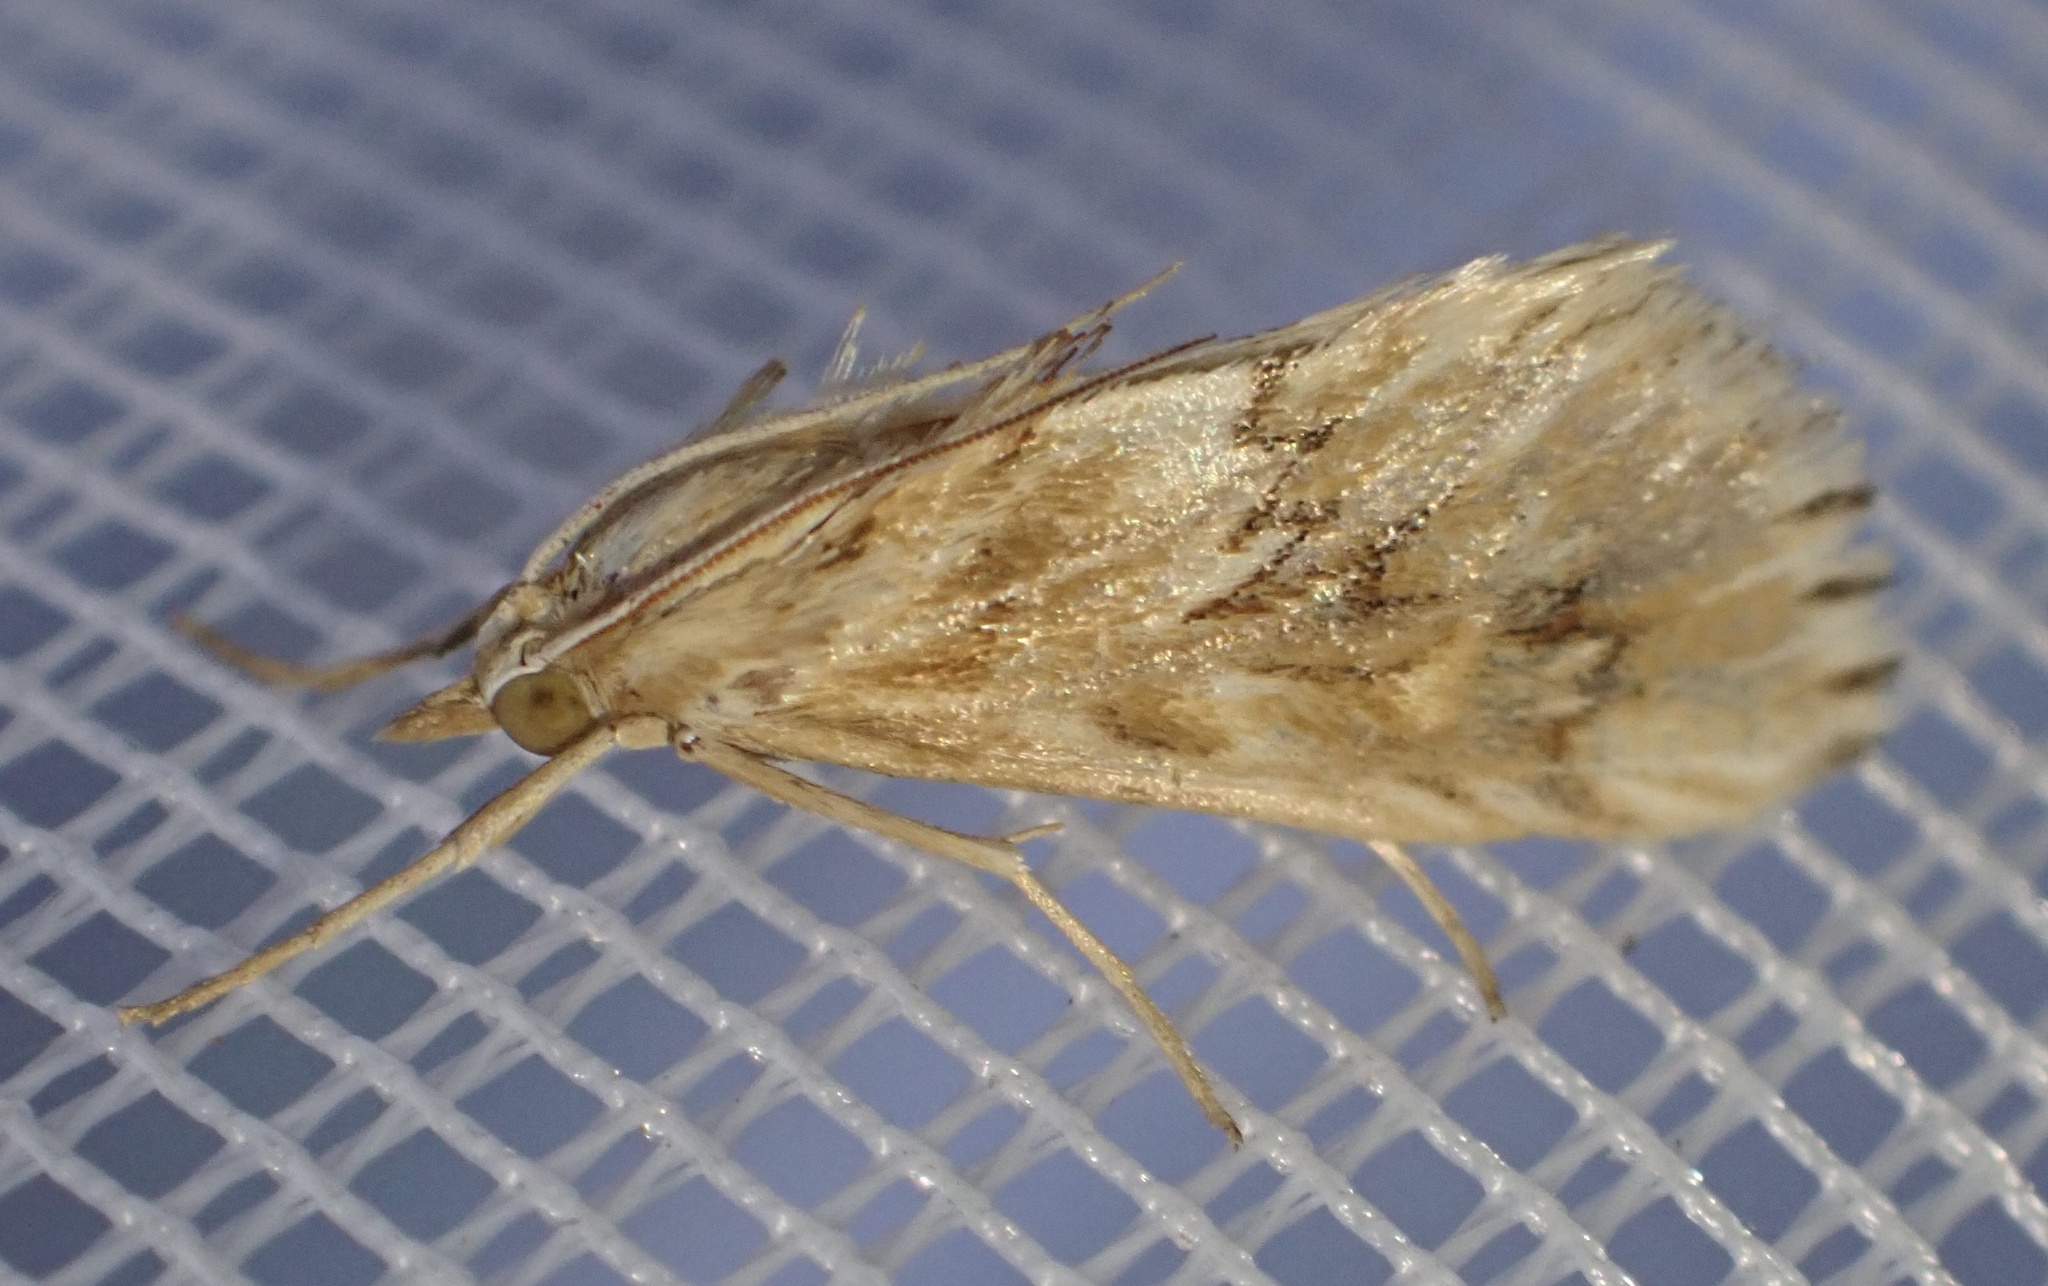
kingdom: Animalia
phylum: Arthropoda
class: Insecta
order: Lepidoptera
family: Crambidae
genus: Cynaeda
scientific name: Cynaeda dentalis
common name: Starry pearl
